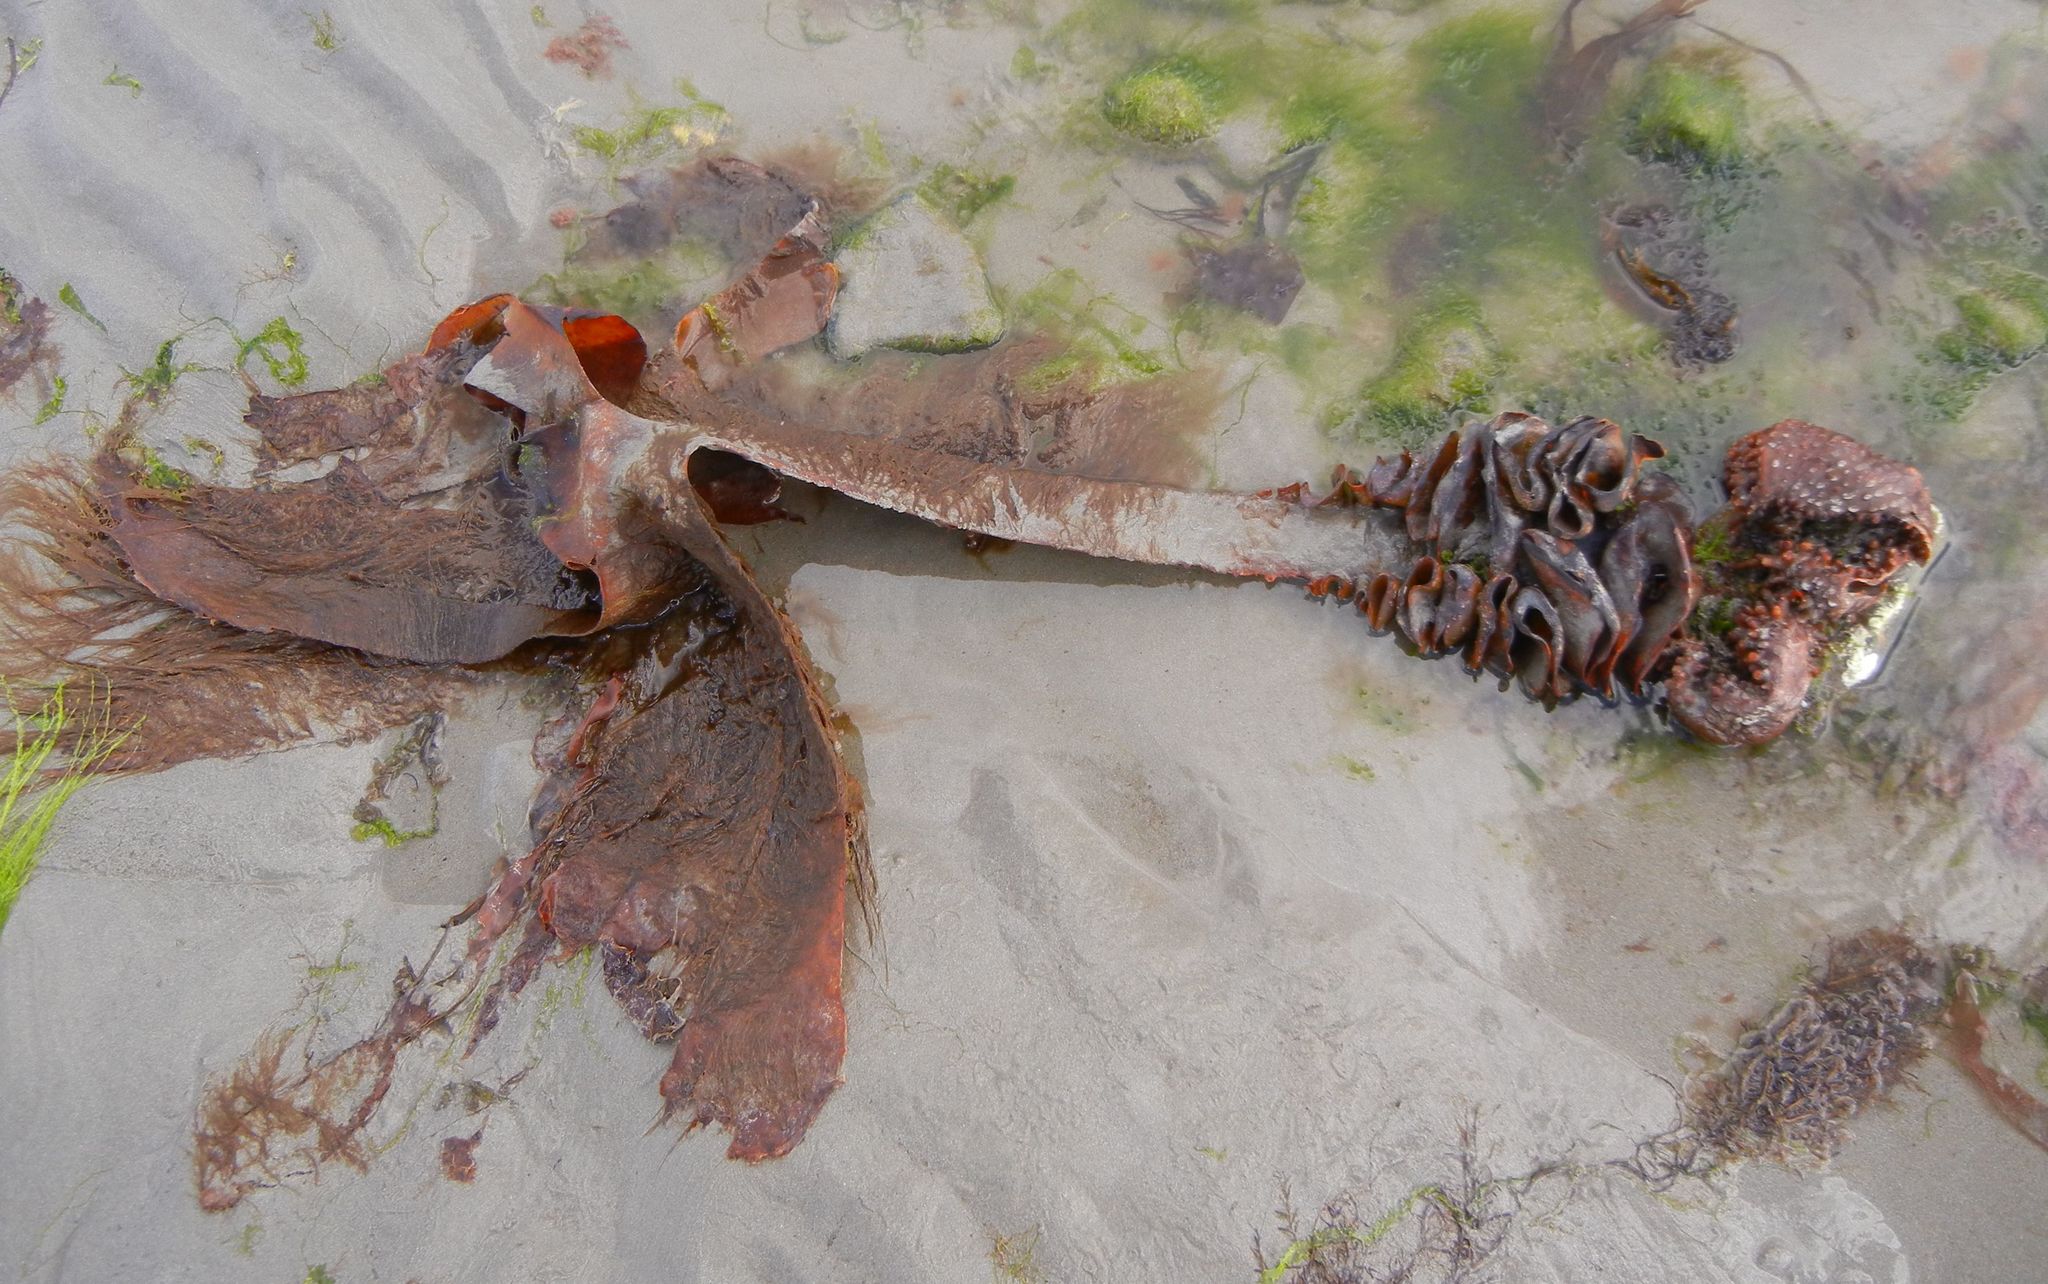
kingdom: Chromista
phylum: Ochrophyta
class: Phaeophyceae
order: Tilopteridales
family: Phyllariaceae
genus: Saccorhiza
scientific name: Saccorhiza polyschides
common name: Furbelows
